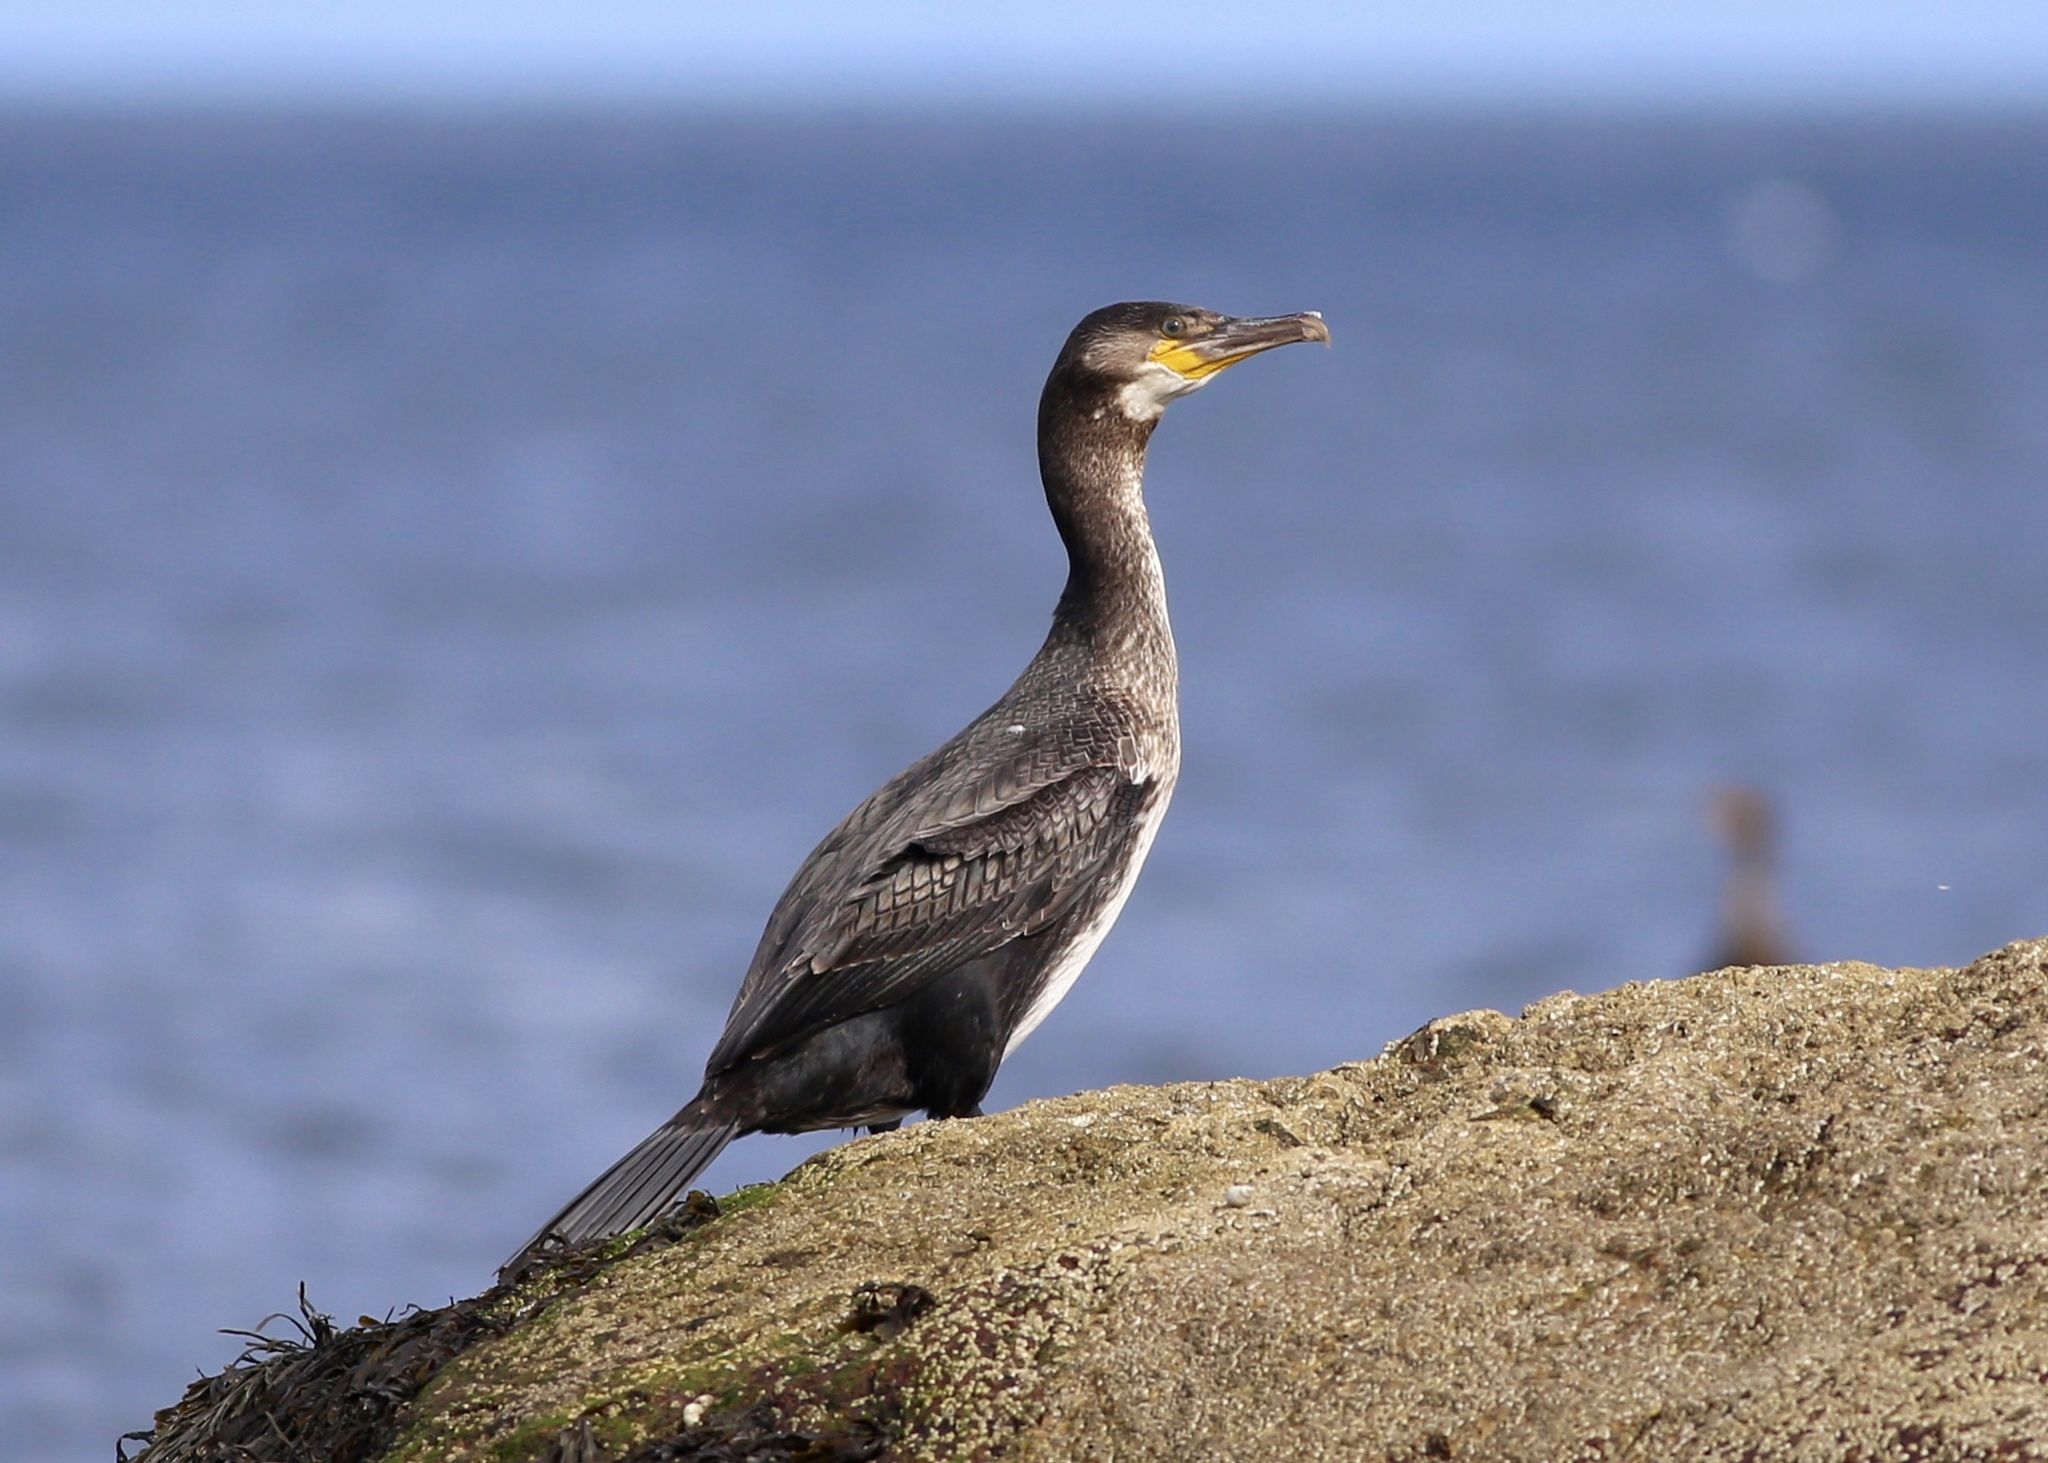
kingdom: Animalia
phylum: Chordata
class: Aves
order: Suliformes
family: Phalacrocoracidae
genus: Phalacrocorax
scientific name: Phalacrocorax carbo
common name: Great cormorant
